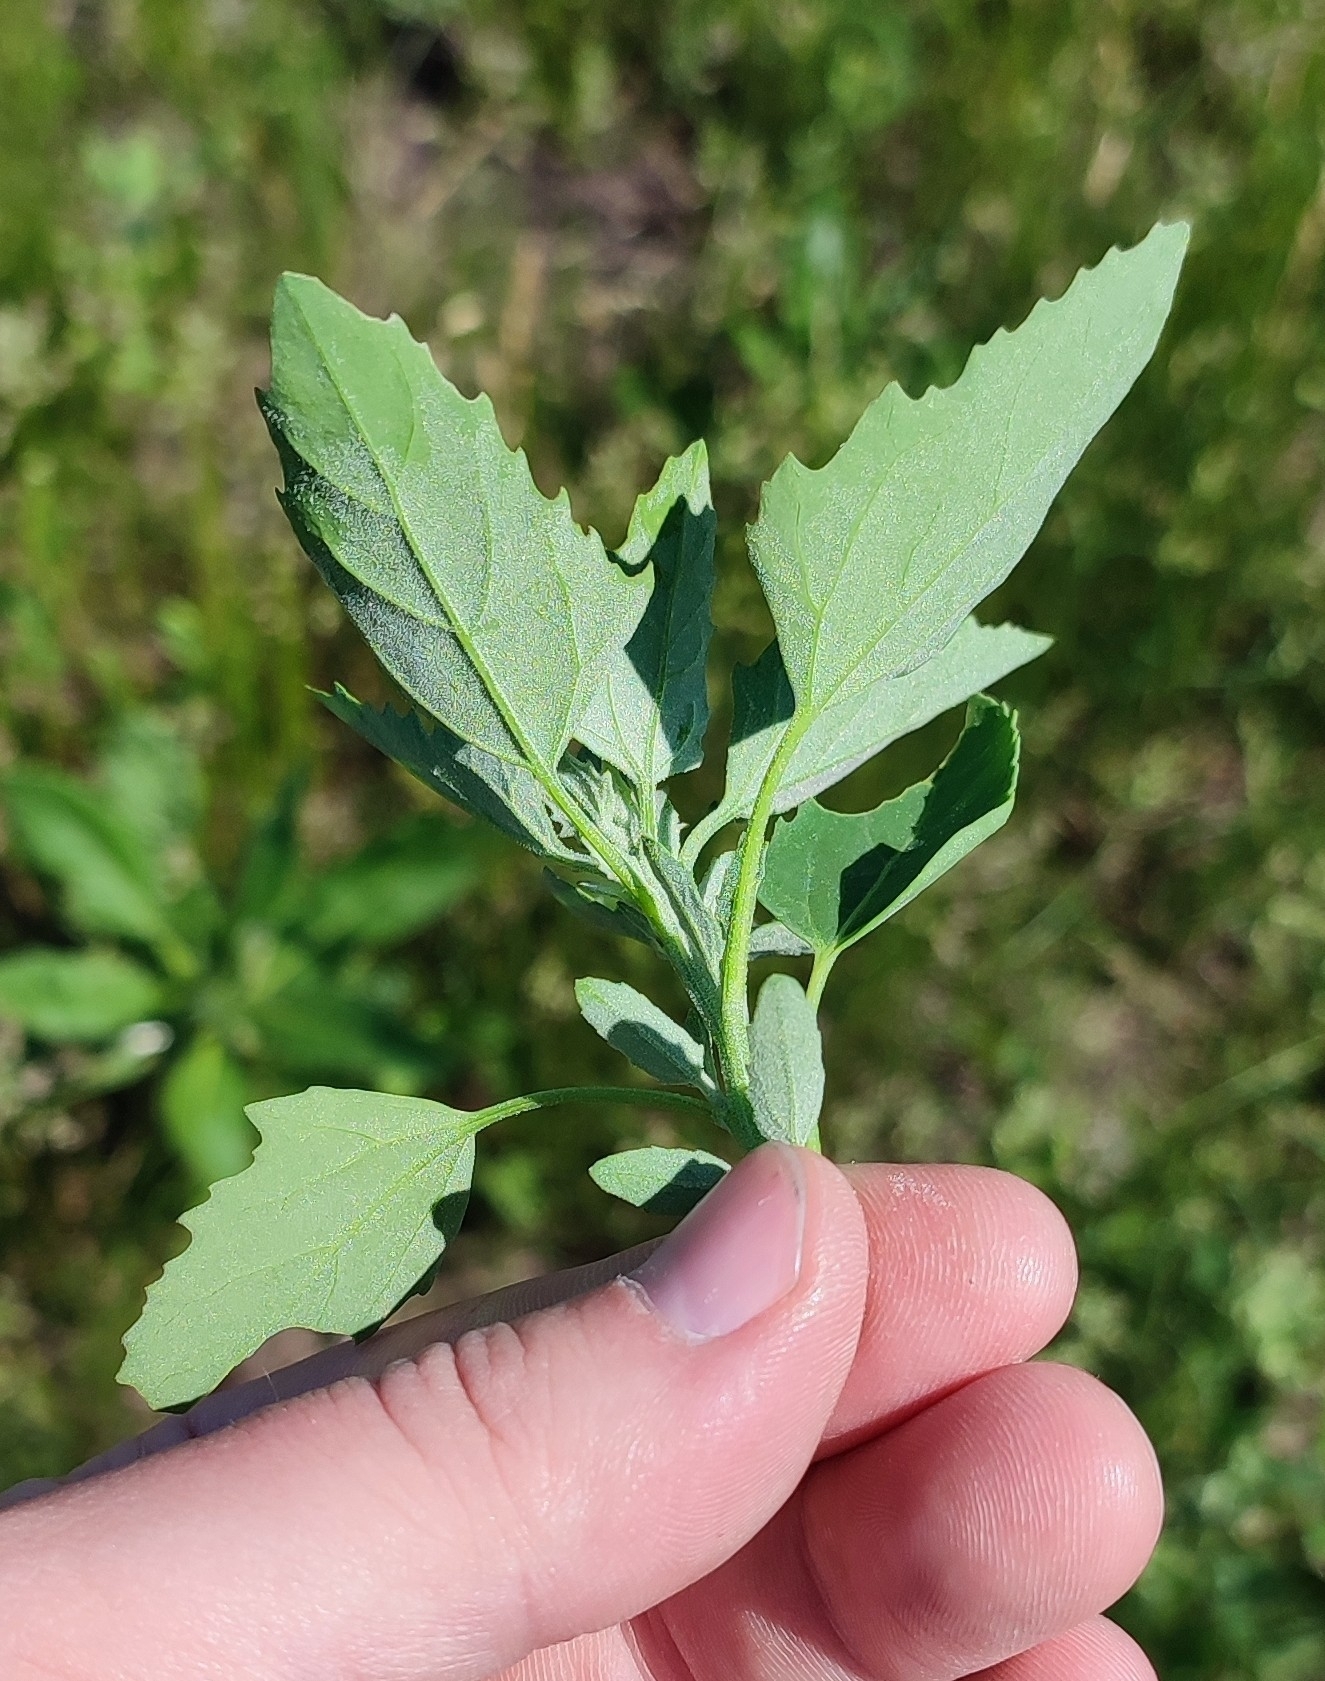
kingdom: Plantae
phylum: Tracheophyta
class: Magnoliopsida
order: Caryophyllales
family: Amaranthaceae
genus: Chenopodium
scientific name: Chenopodium album
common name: Fat-hen
